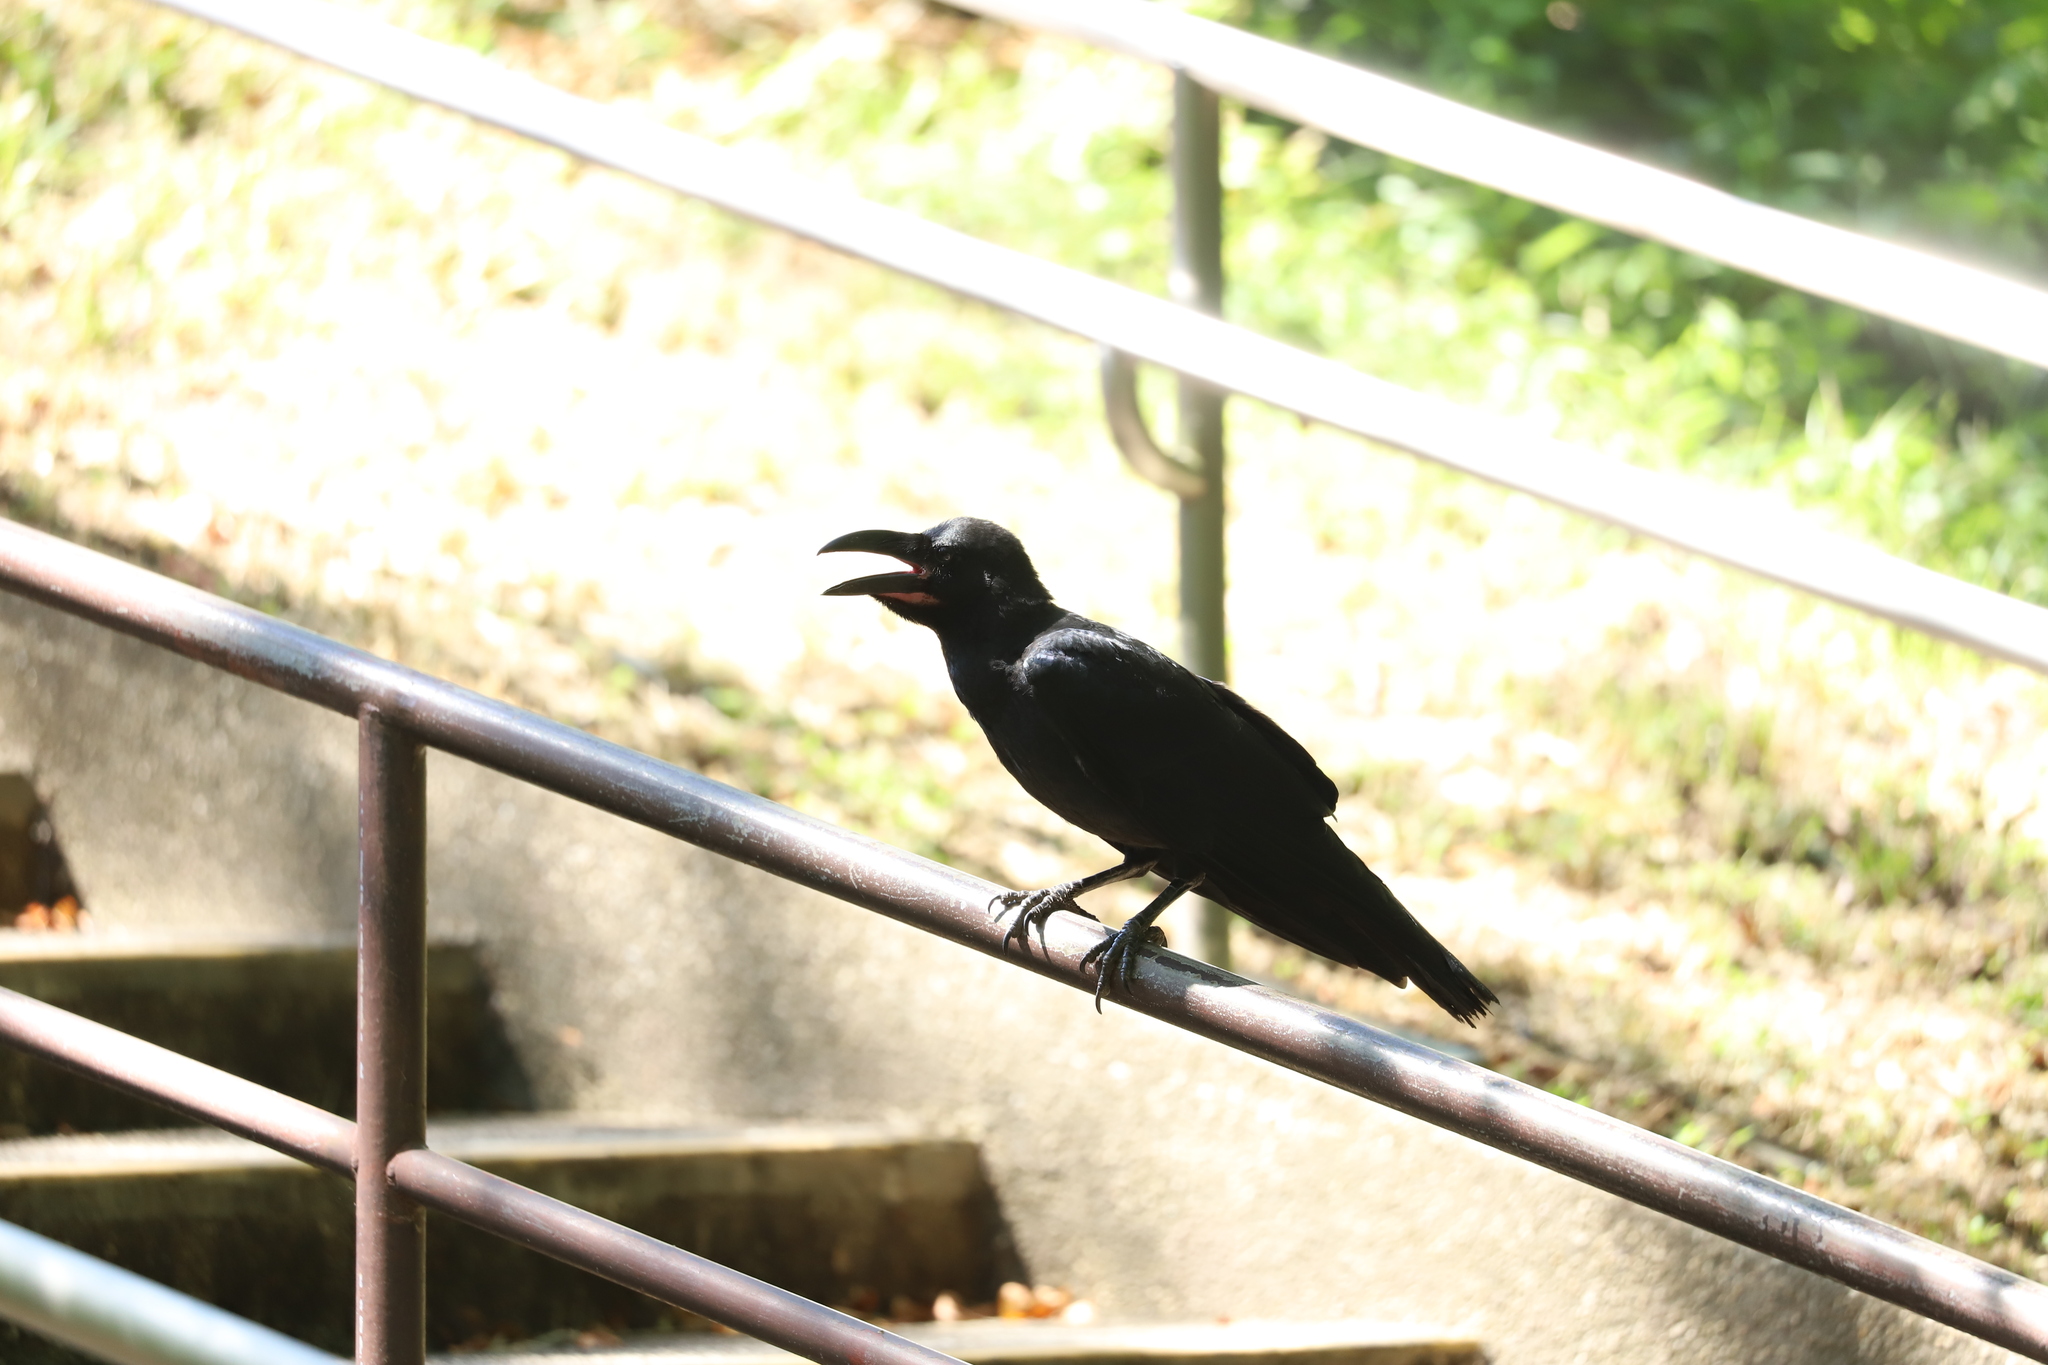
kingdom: Animalia
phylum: Chordata
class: Aves
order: Passeriformes
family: Corvidae
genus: Corvus
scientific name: Corvus macrorhynchos
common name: Large-billed crow
